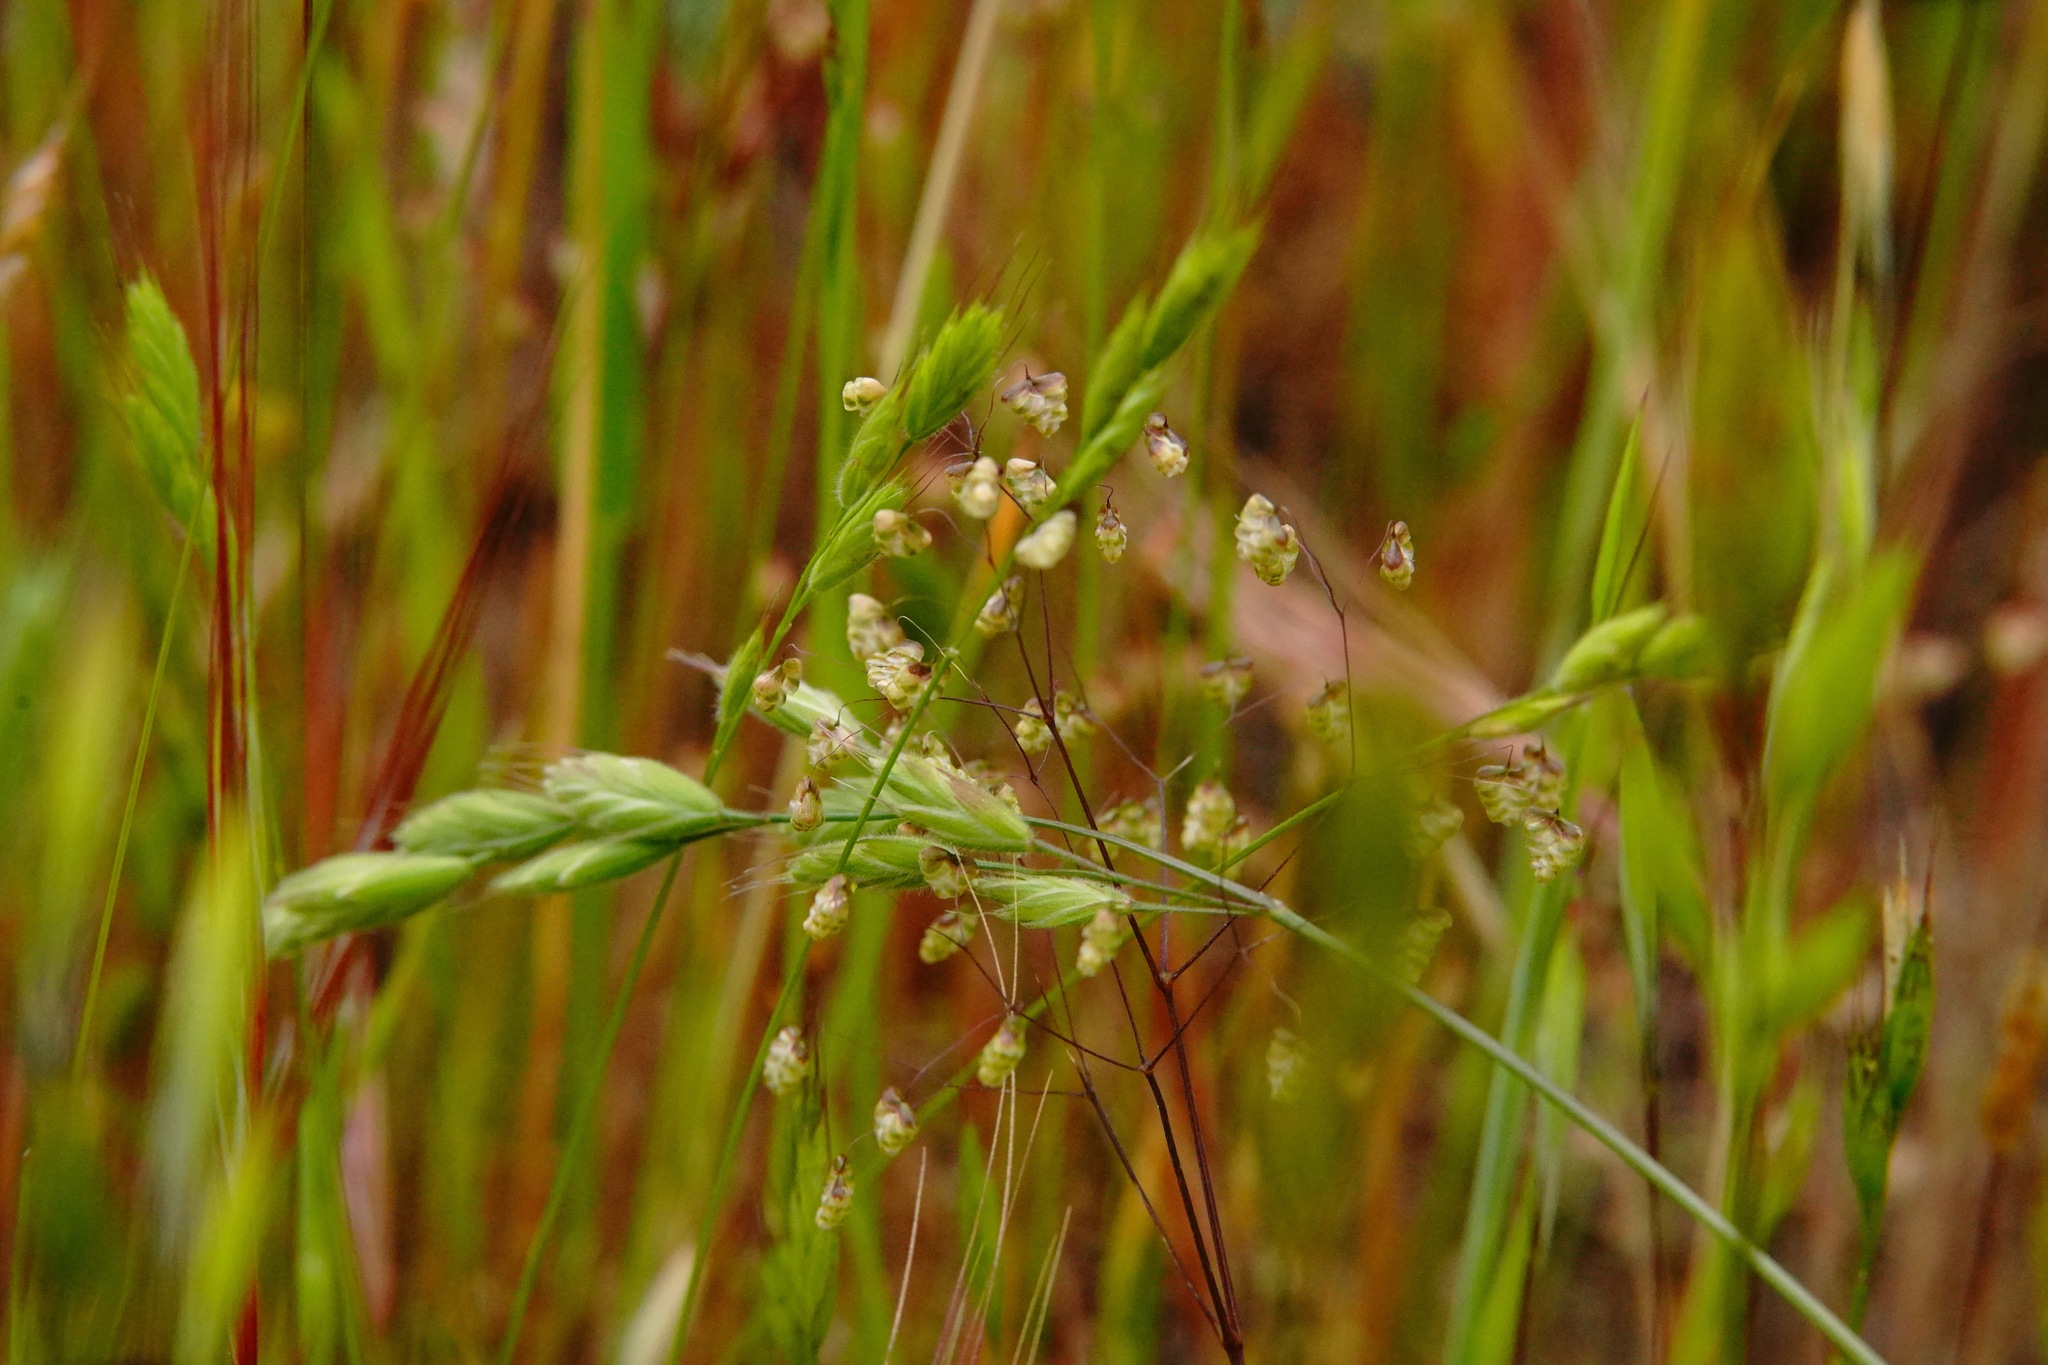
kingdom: Plantae
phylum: Tracheophyta
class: Liliopsida
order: Poales
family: Poaceae
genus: Briza
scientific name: Briza minor
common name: Lesser quaking-grass
